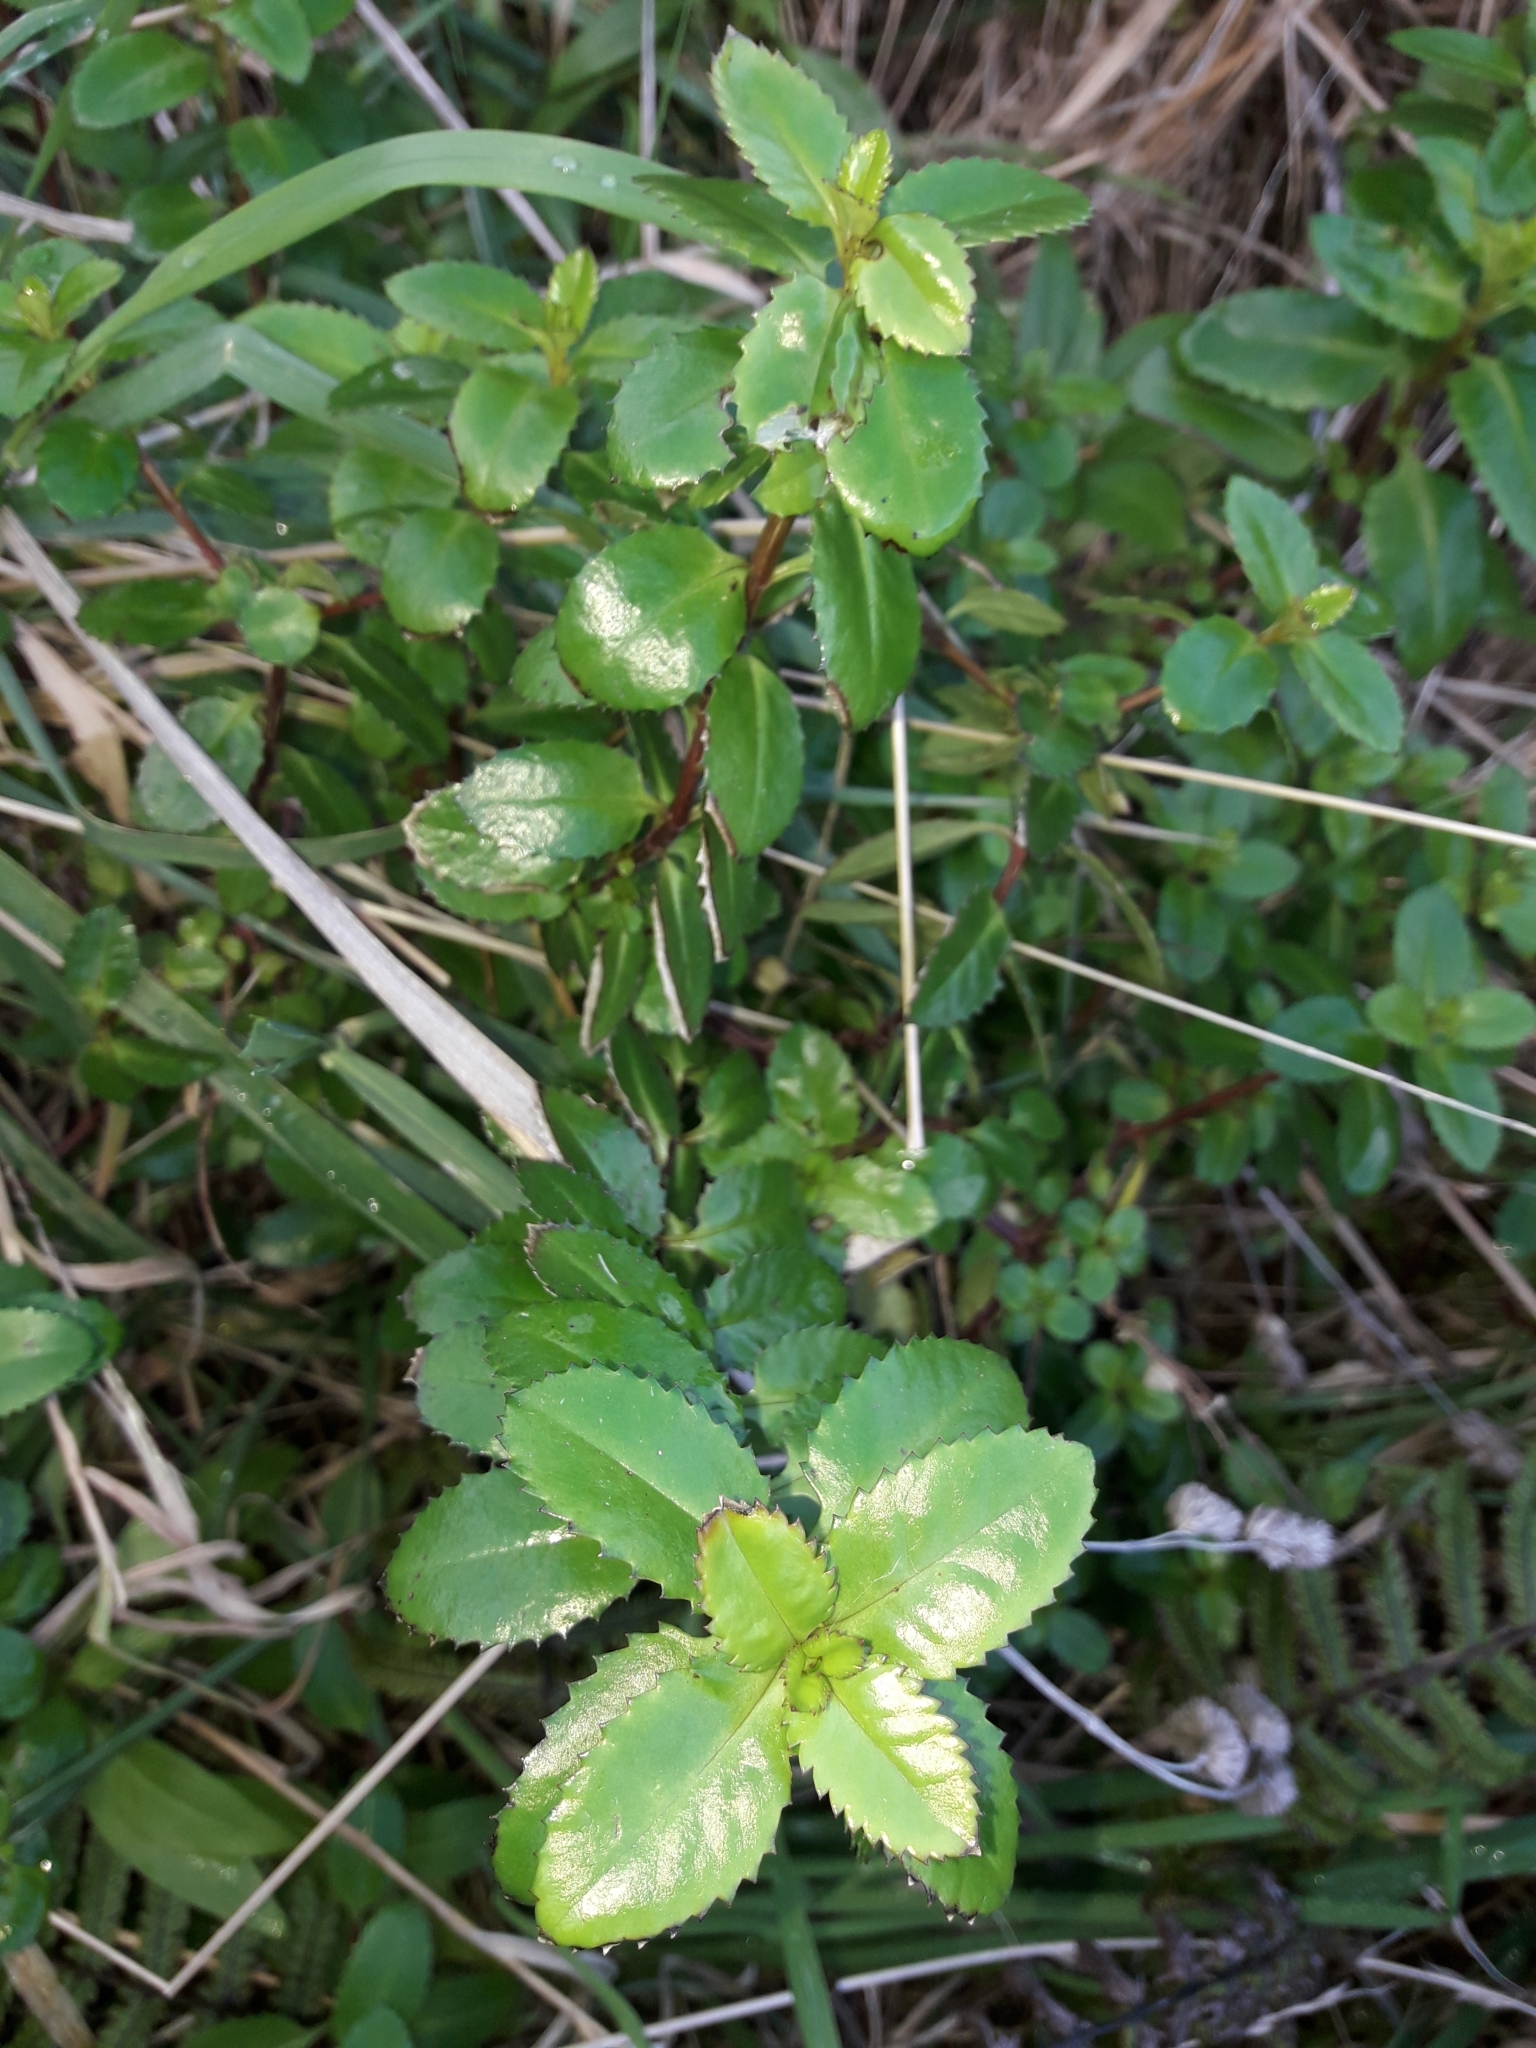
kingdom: Plantae
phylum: Tracheophyta
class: Magnoliopsida
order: Saxifragales
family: Haloragaceae
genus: Haloragis
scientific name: Haloragis erecta
